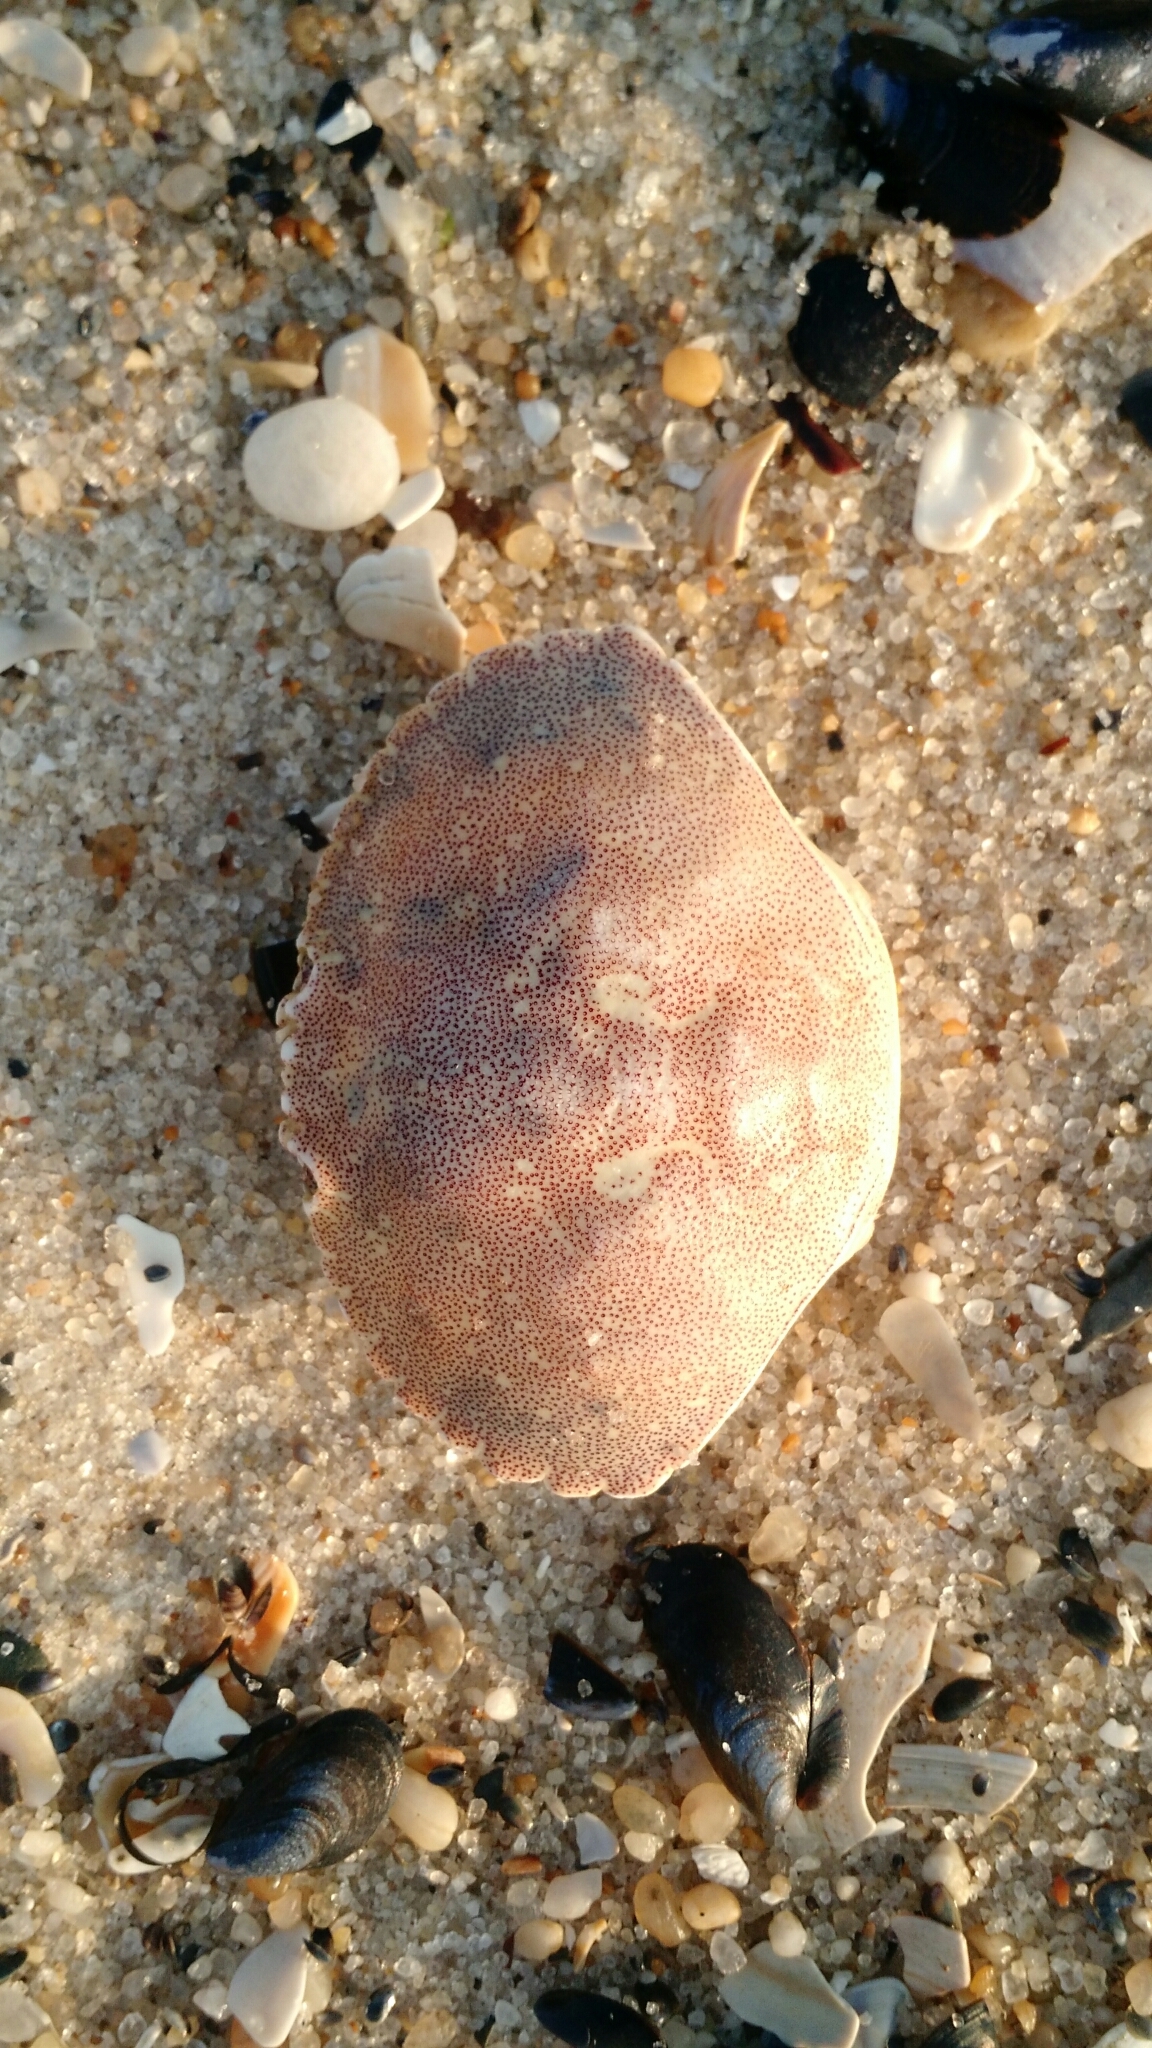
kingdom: Animalia
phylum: Arthropoda
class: Malacostraca
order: Decapoda
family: Cancridae
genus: Cancer
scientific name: Cancer irroratus
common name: Atlantic rock crab
